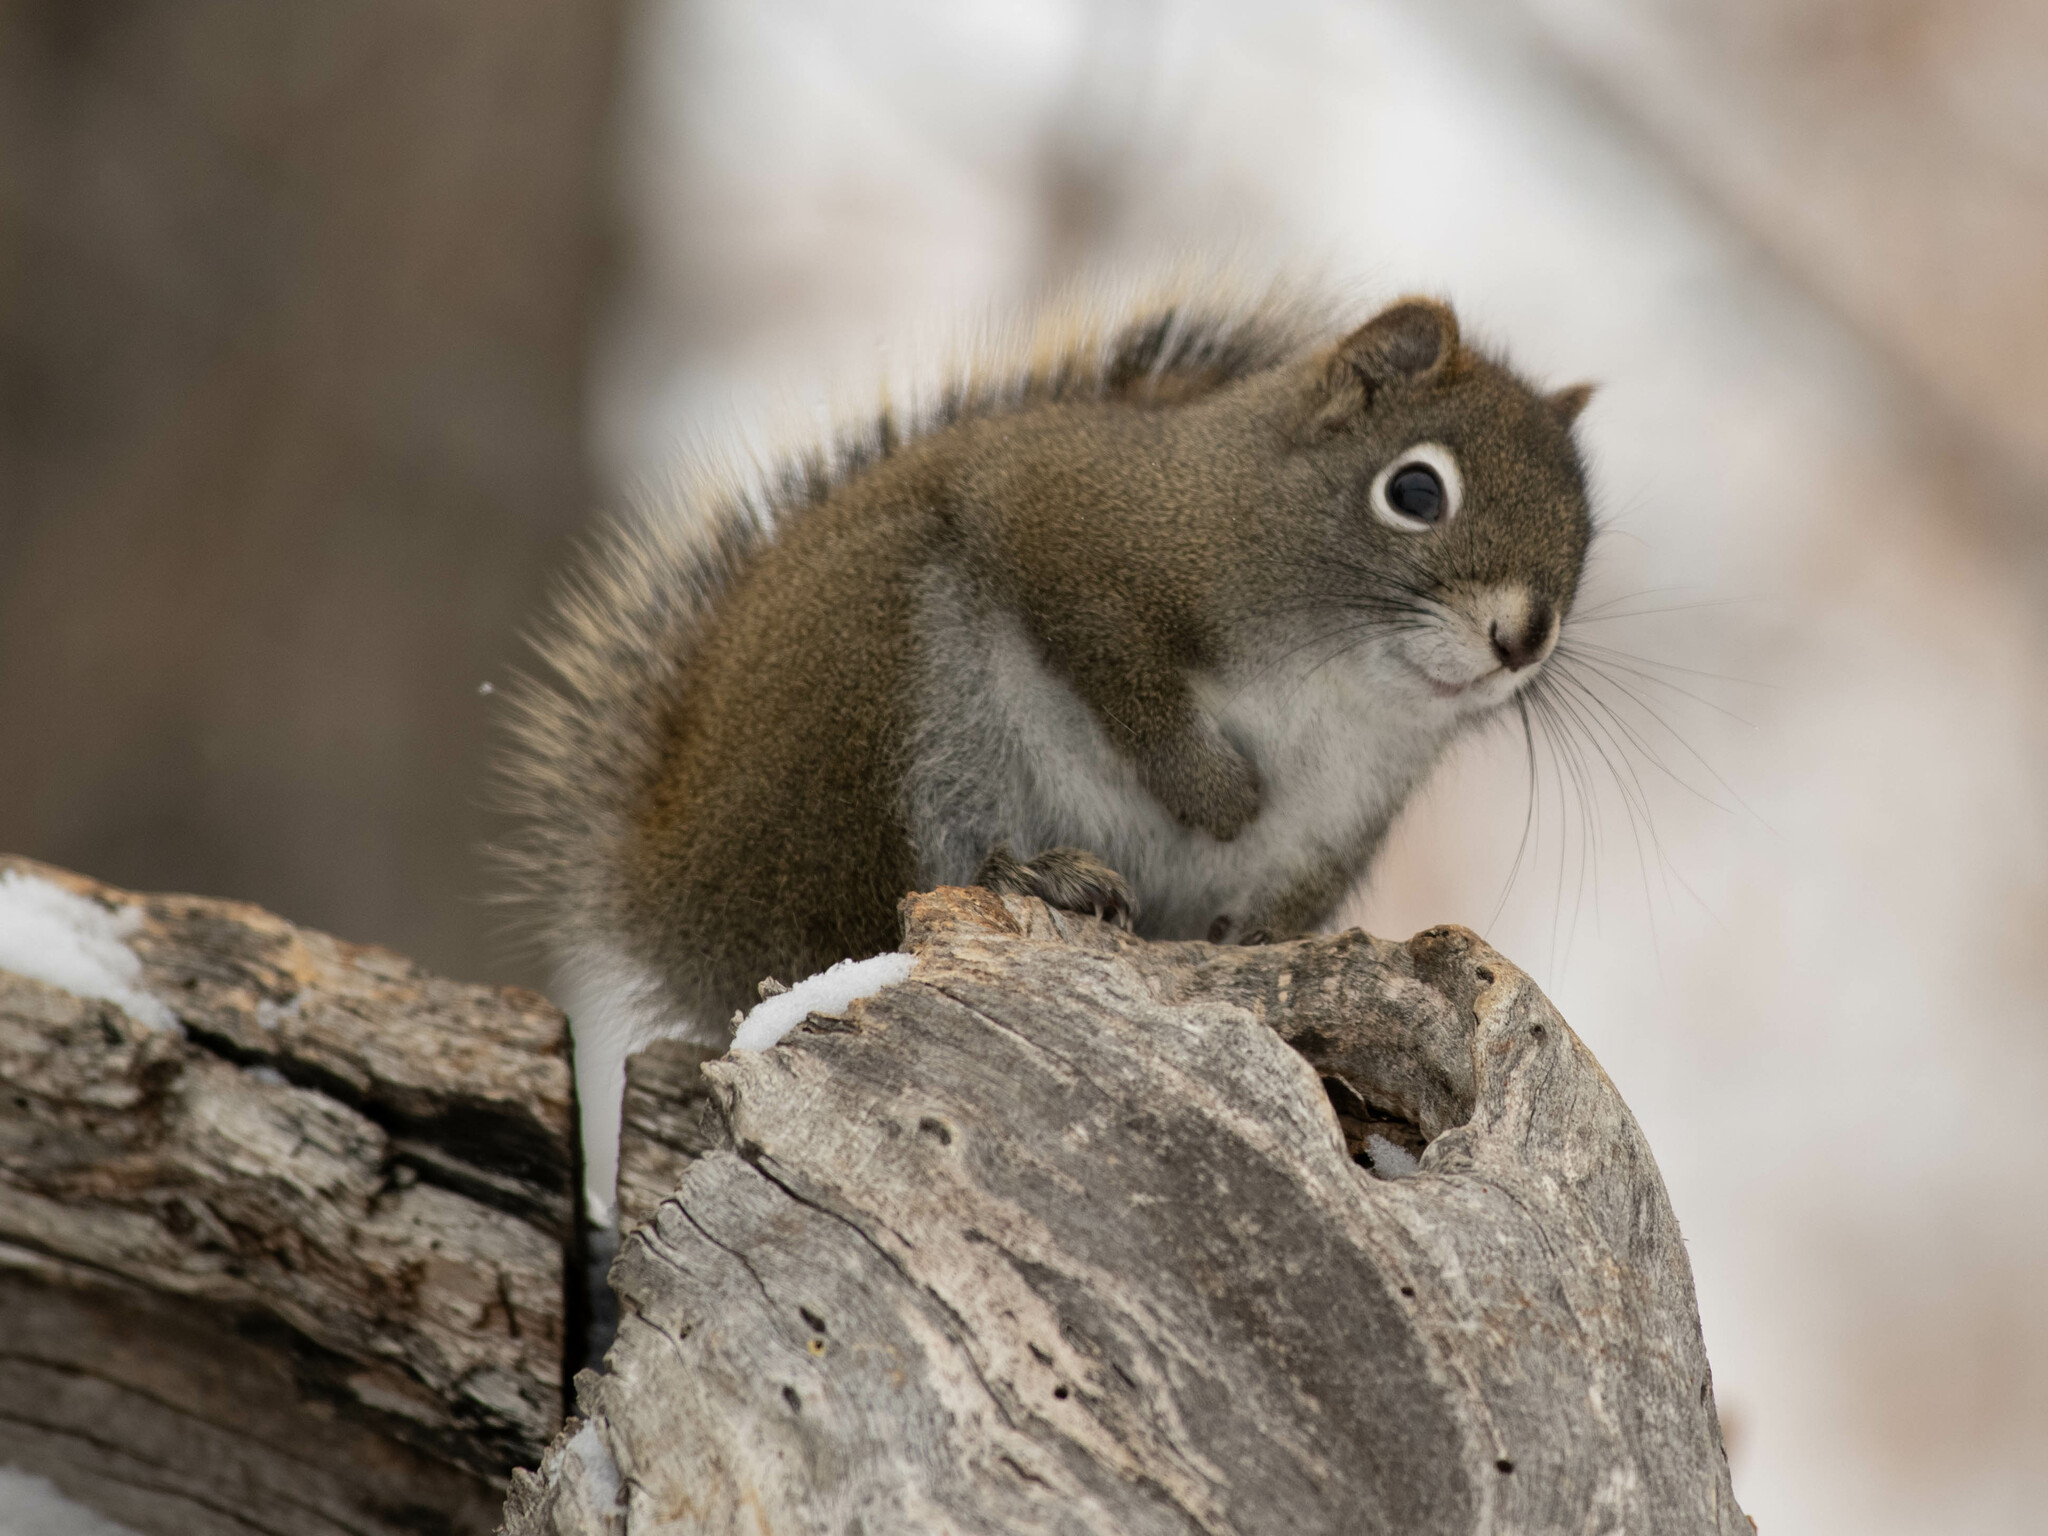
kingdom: Animalia
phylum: Chordata
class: Mammalia
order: Rodentia
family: Sciuridae
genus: Tamiasciurus
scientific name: Tamiasciurus hudsonicus
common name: Red squirrel
